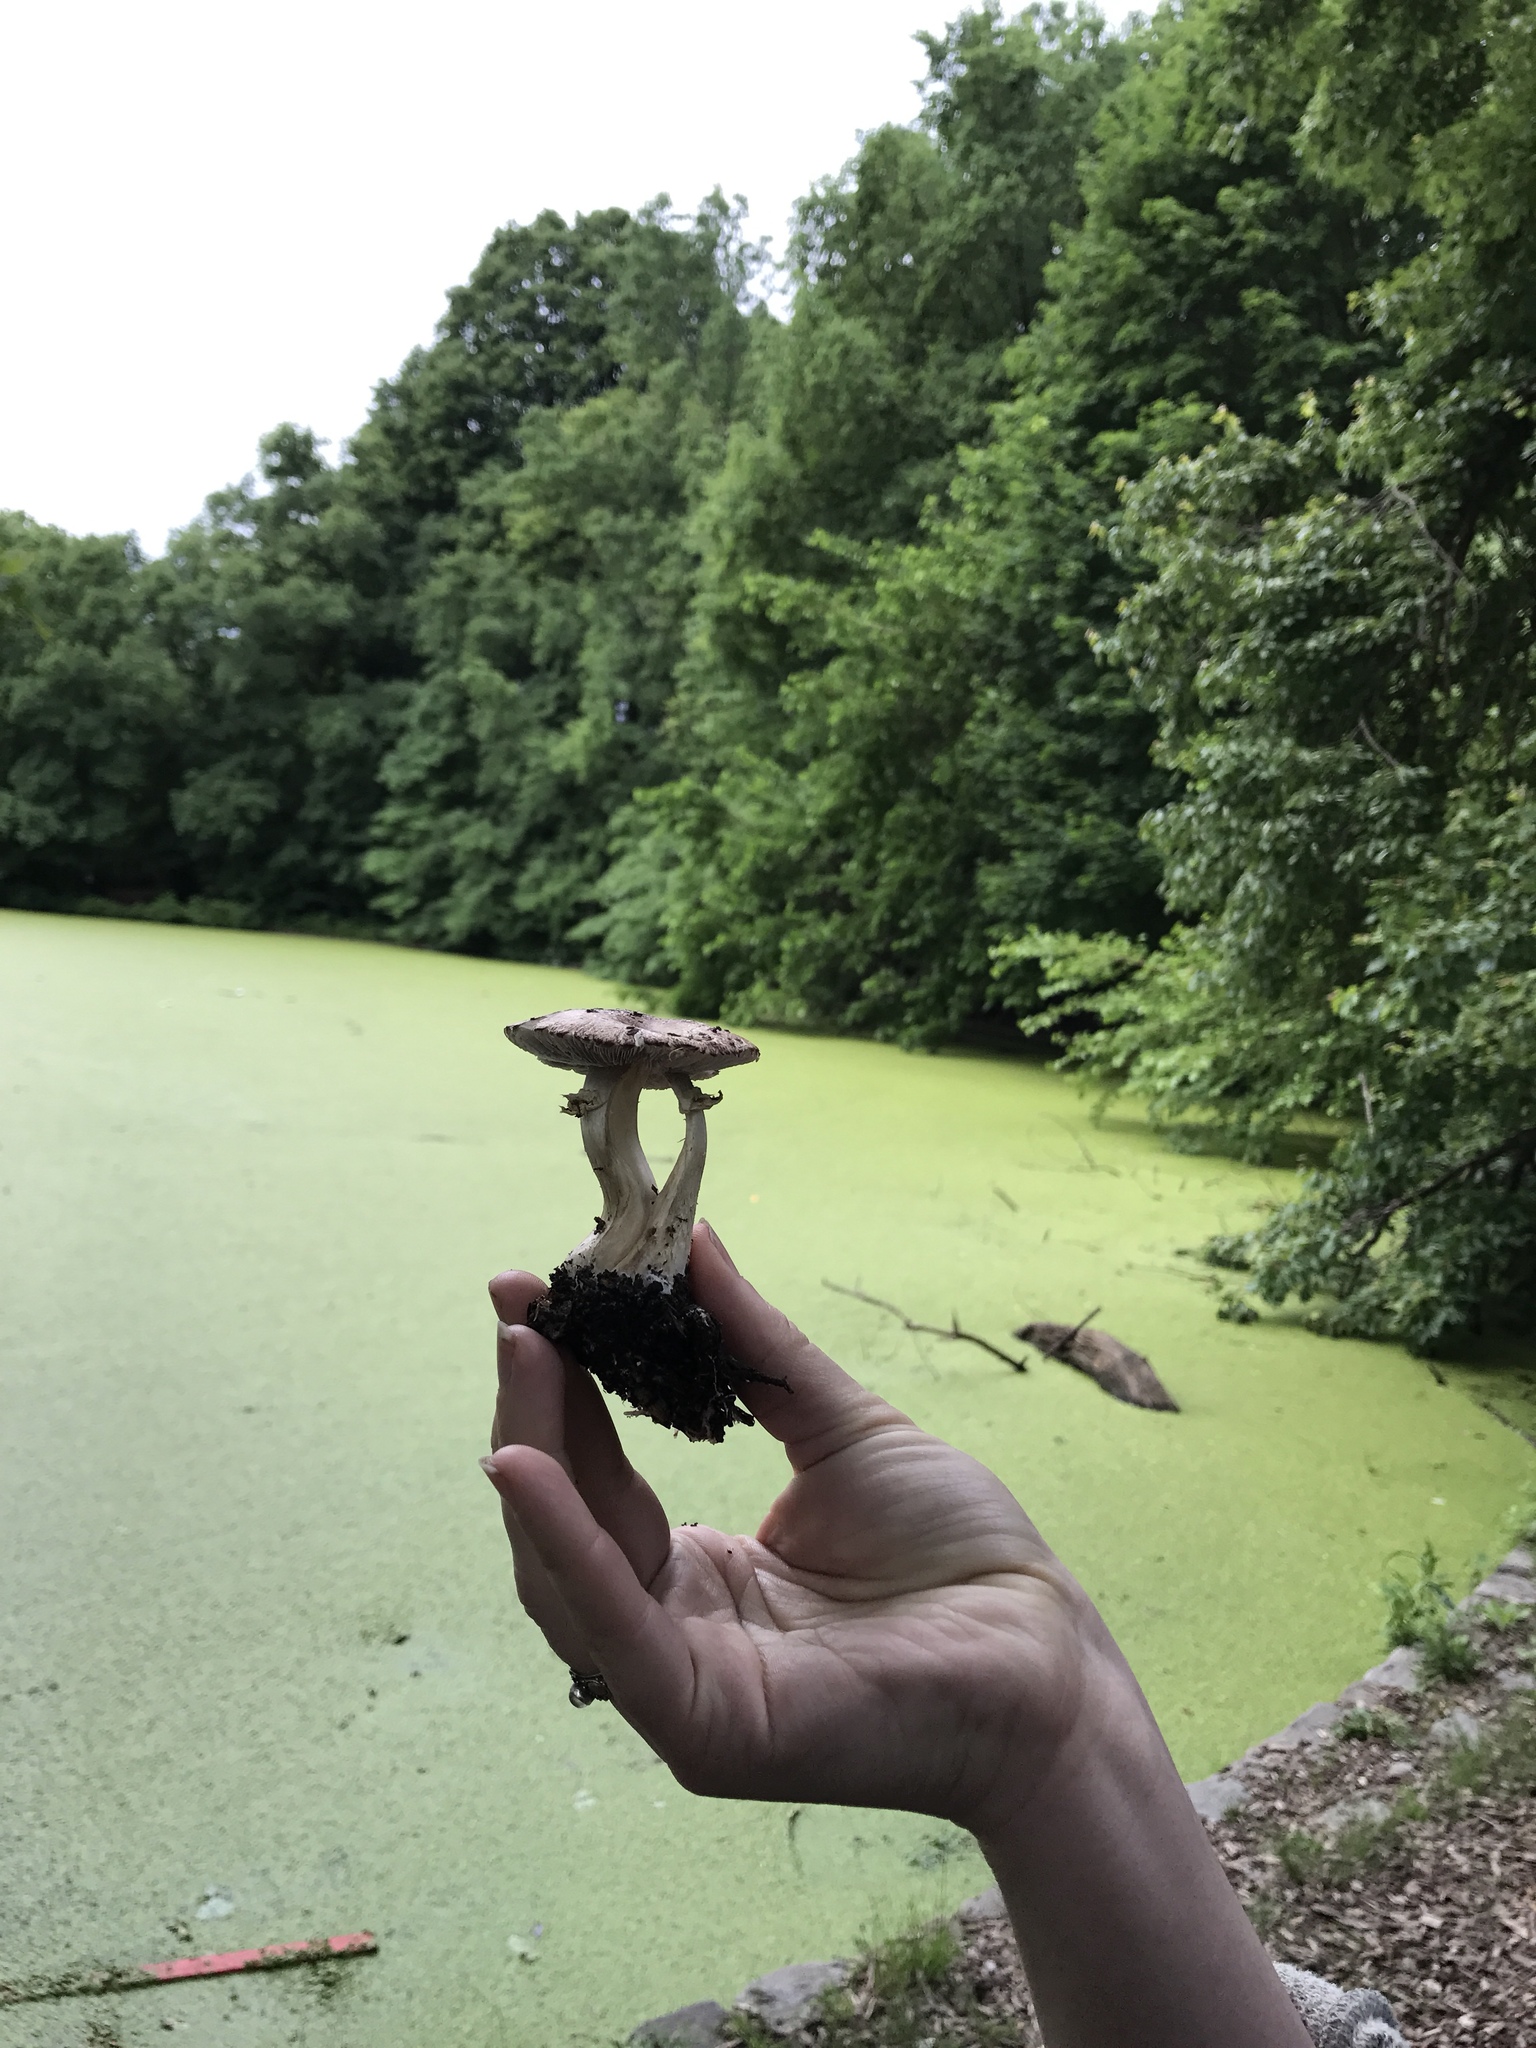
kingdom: Fungi
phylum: Basidiomycota
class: Agaricomycetes
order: Agaricales
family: Strophariaceae
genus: Stropharia
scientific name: Stropharia rugosoannulata
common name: Wine roundhead
